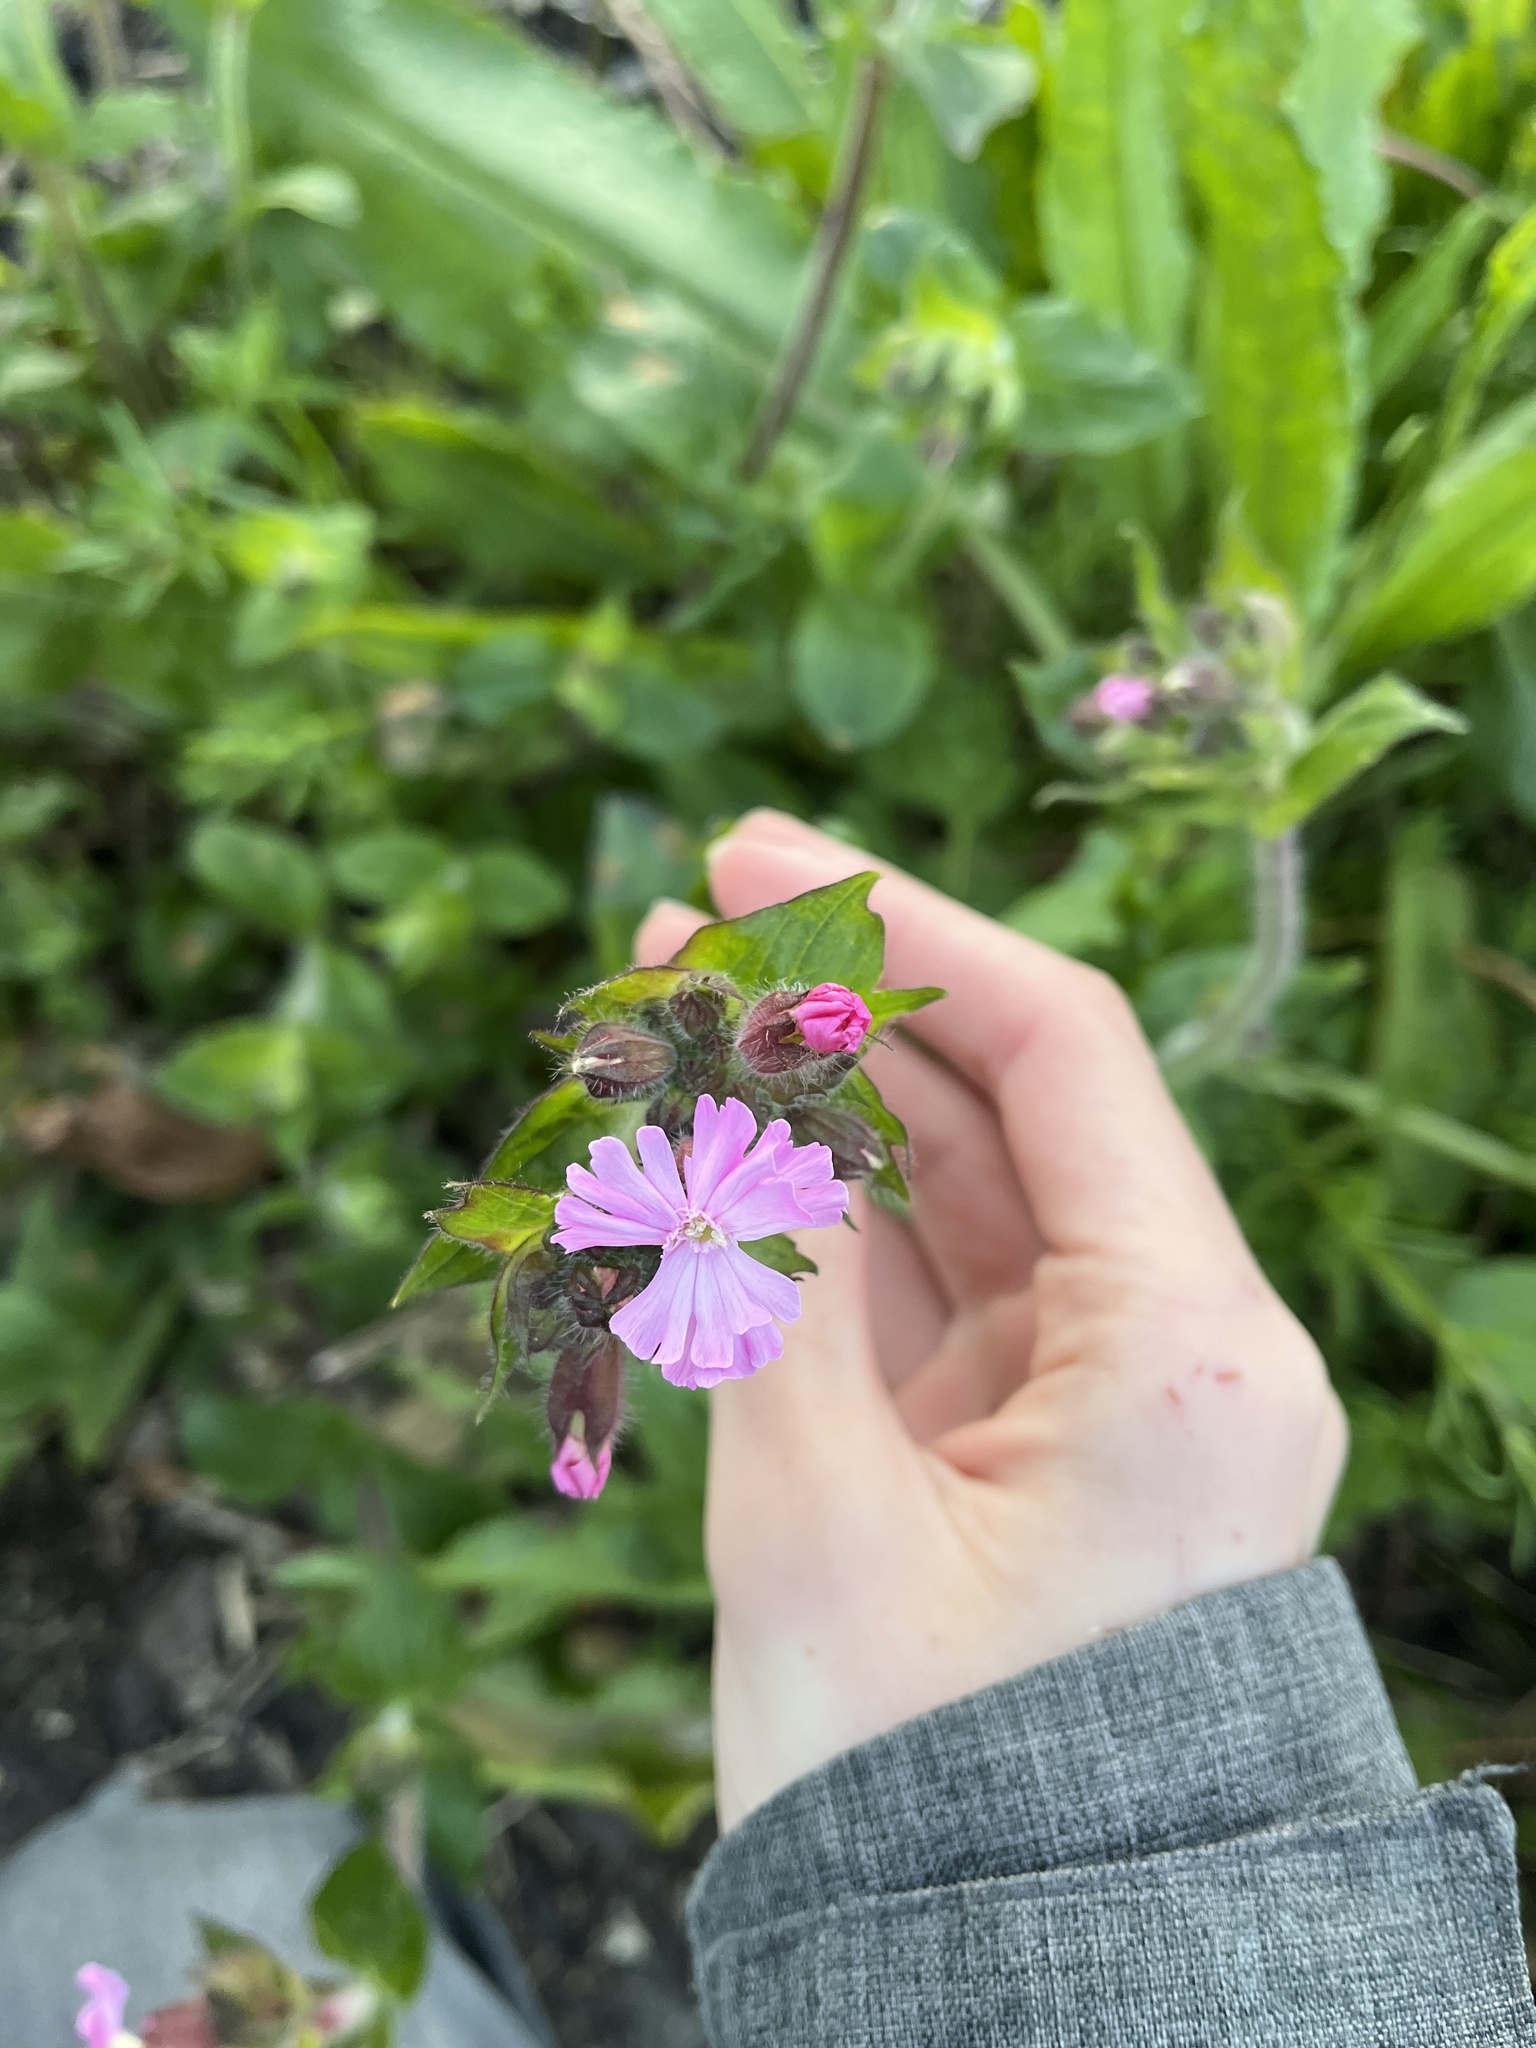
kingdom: Plantae
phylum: Tracheophyta
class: Magnoliopsida
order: Caryophyllales
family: Caryophyllaceae
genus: Silene
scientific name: Silene dioica
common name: Red campion
